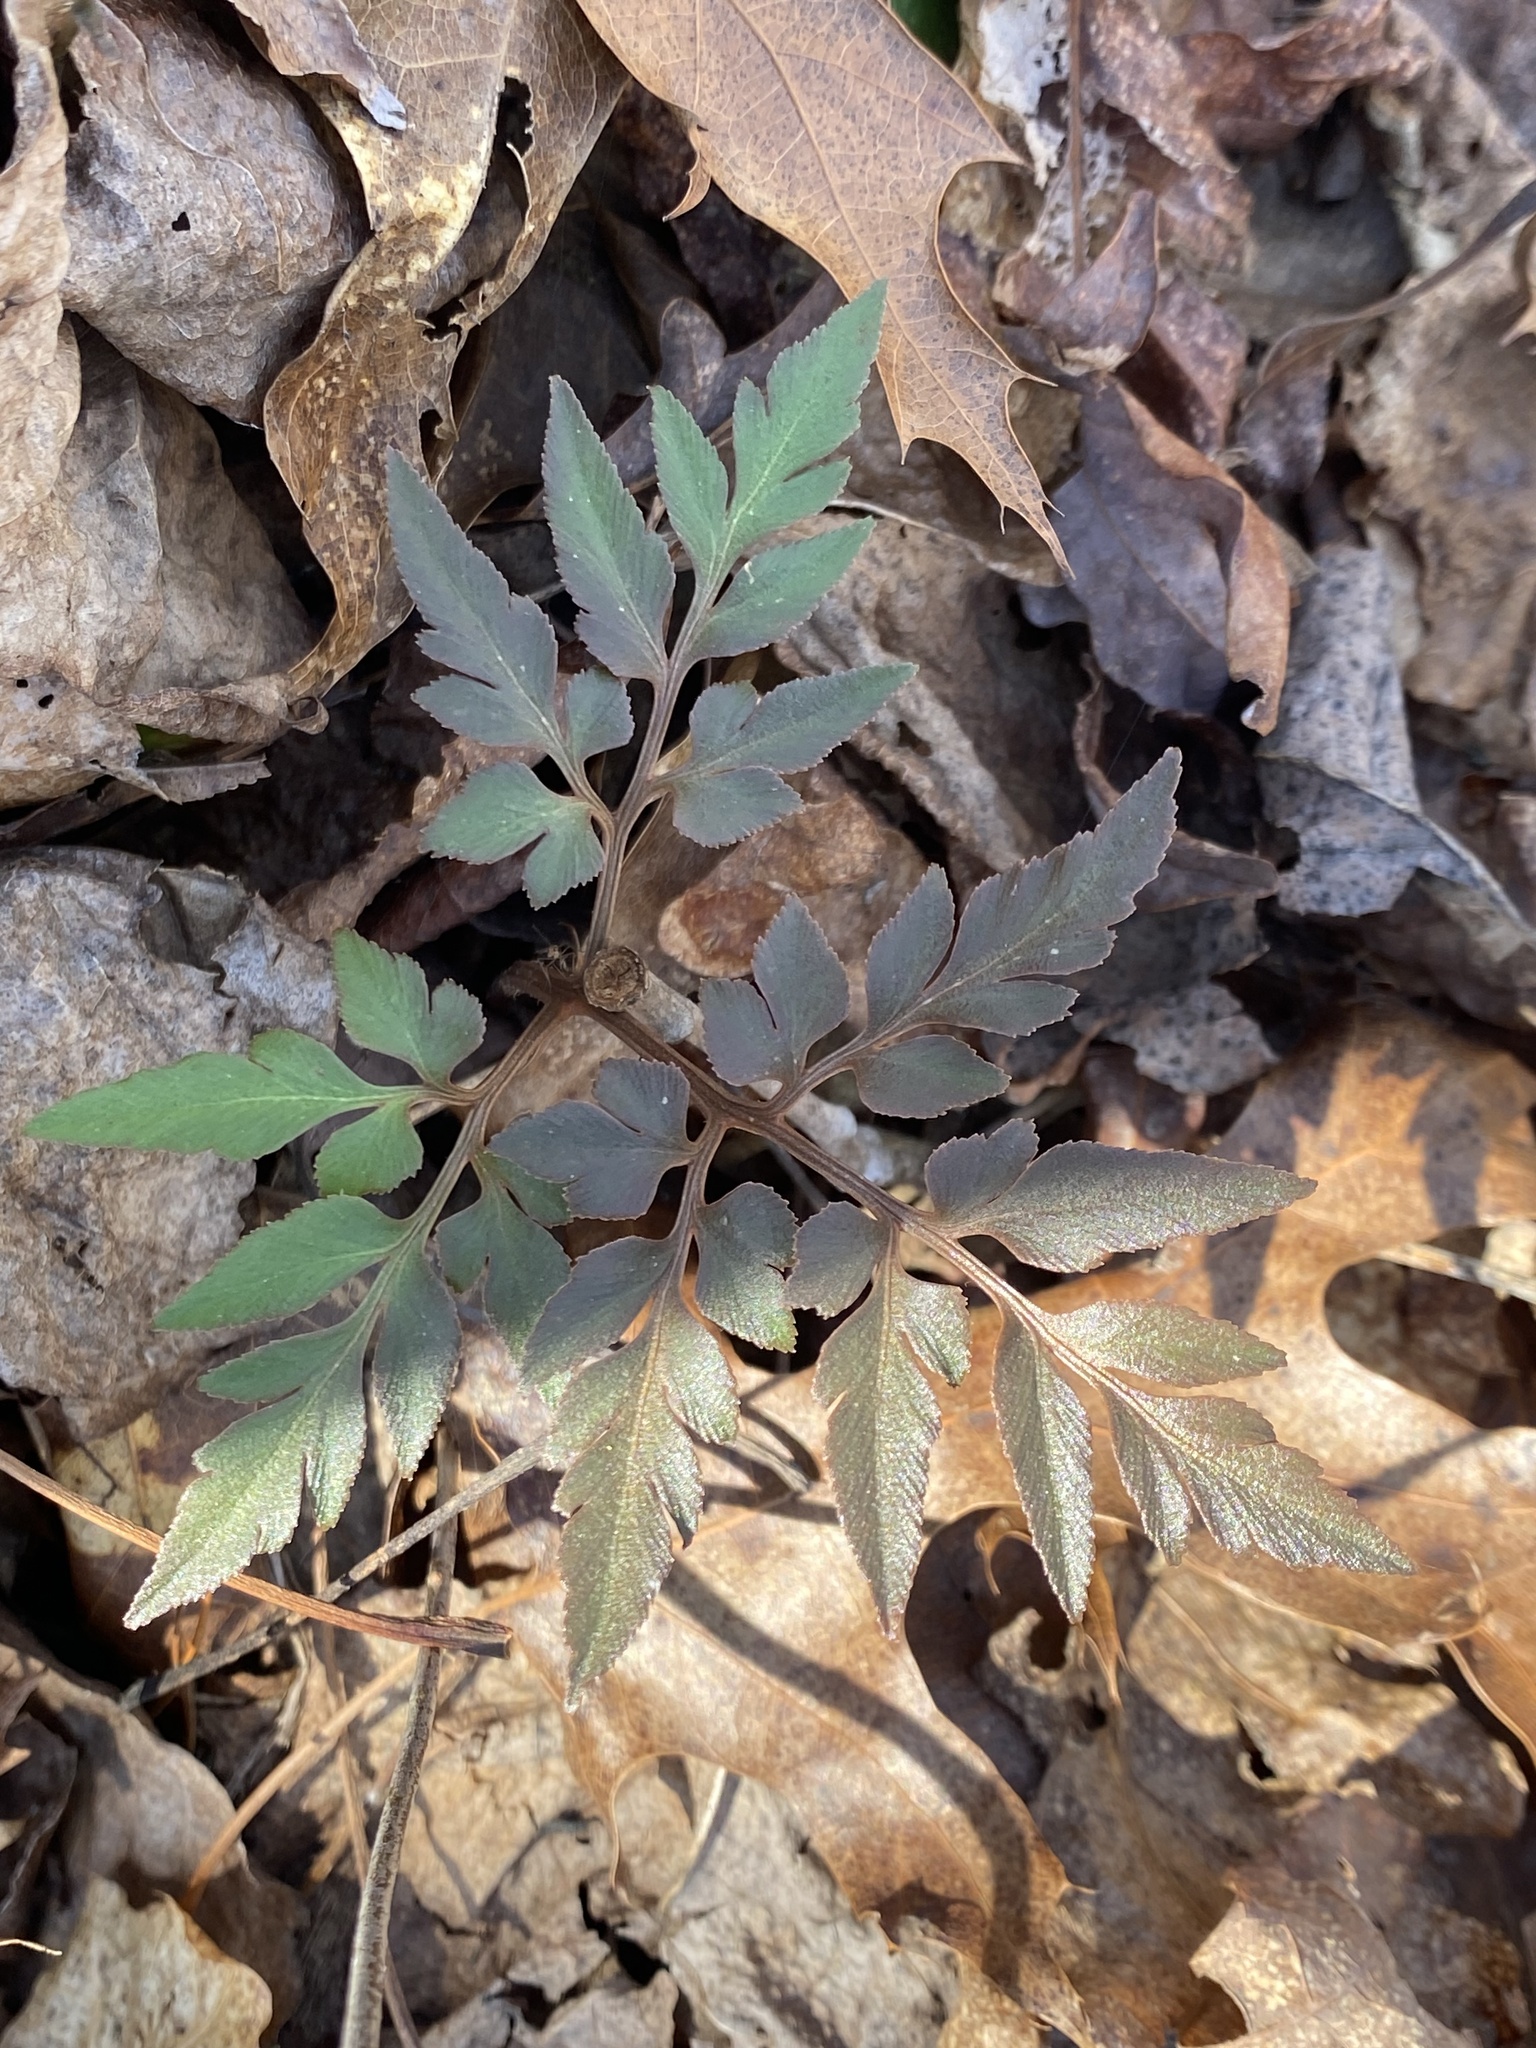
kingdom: Plantae
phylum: Tracheophyta
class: Polypodiopsida
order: Ophioglossales
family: Ophioglossaceae
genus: Sceptridium
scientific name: Sceptridium dissectum
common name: Cut-leaved grapefern
